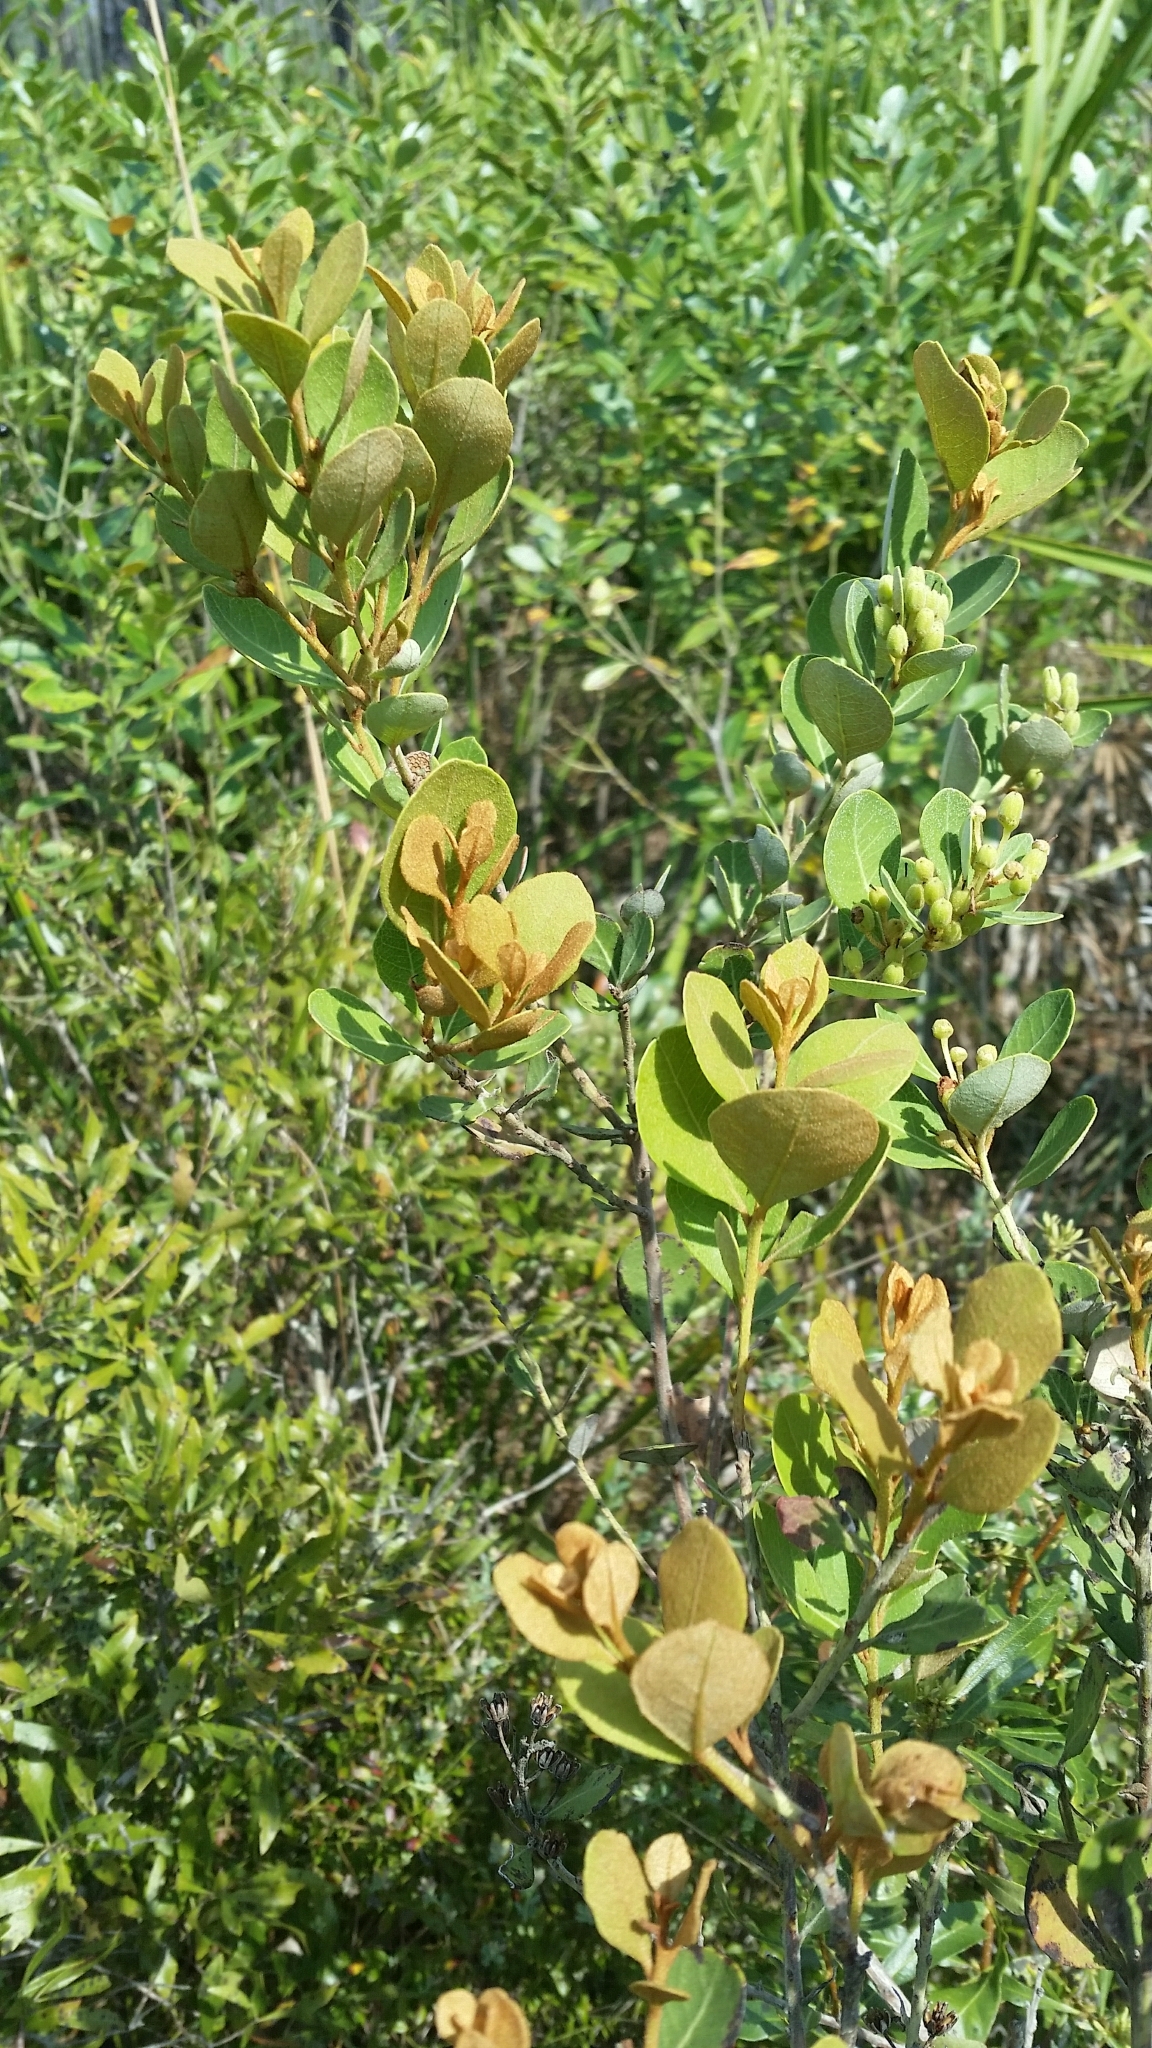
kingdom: Plantae
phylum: Tracheophyta
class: Magnoliopsida
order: Ericales
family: Ericaceae
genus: Lyonia
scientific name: Lyonia fruticosa
